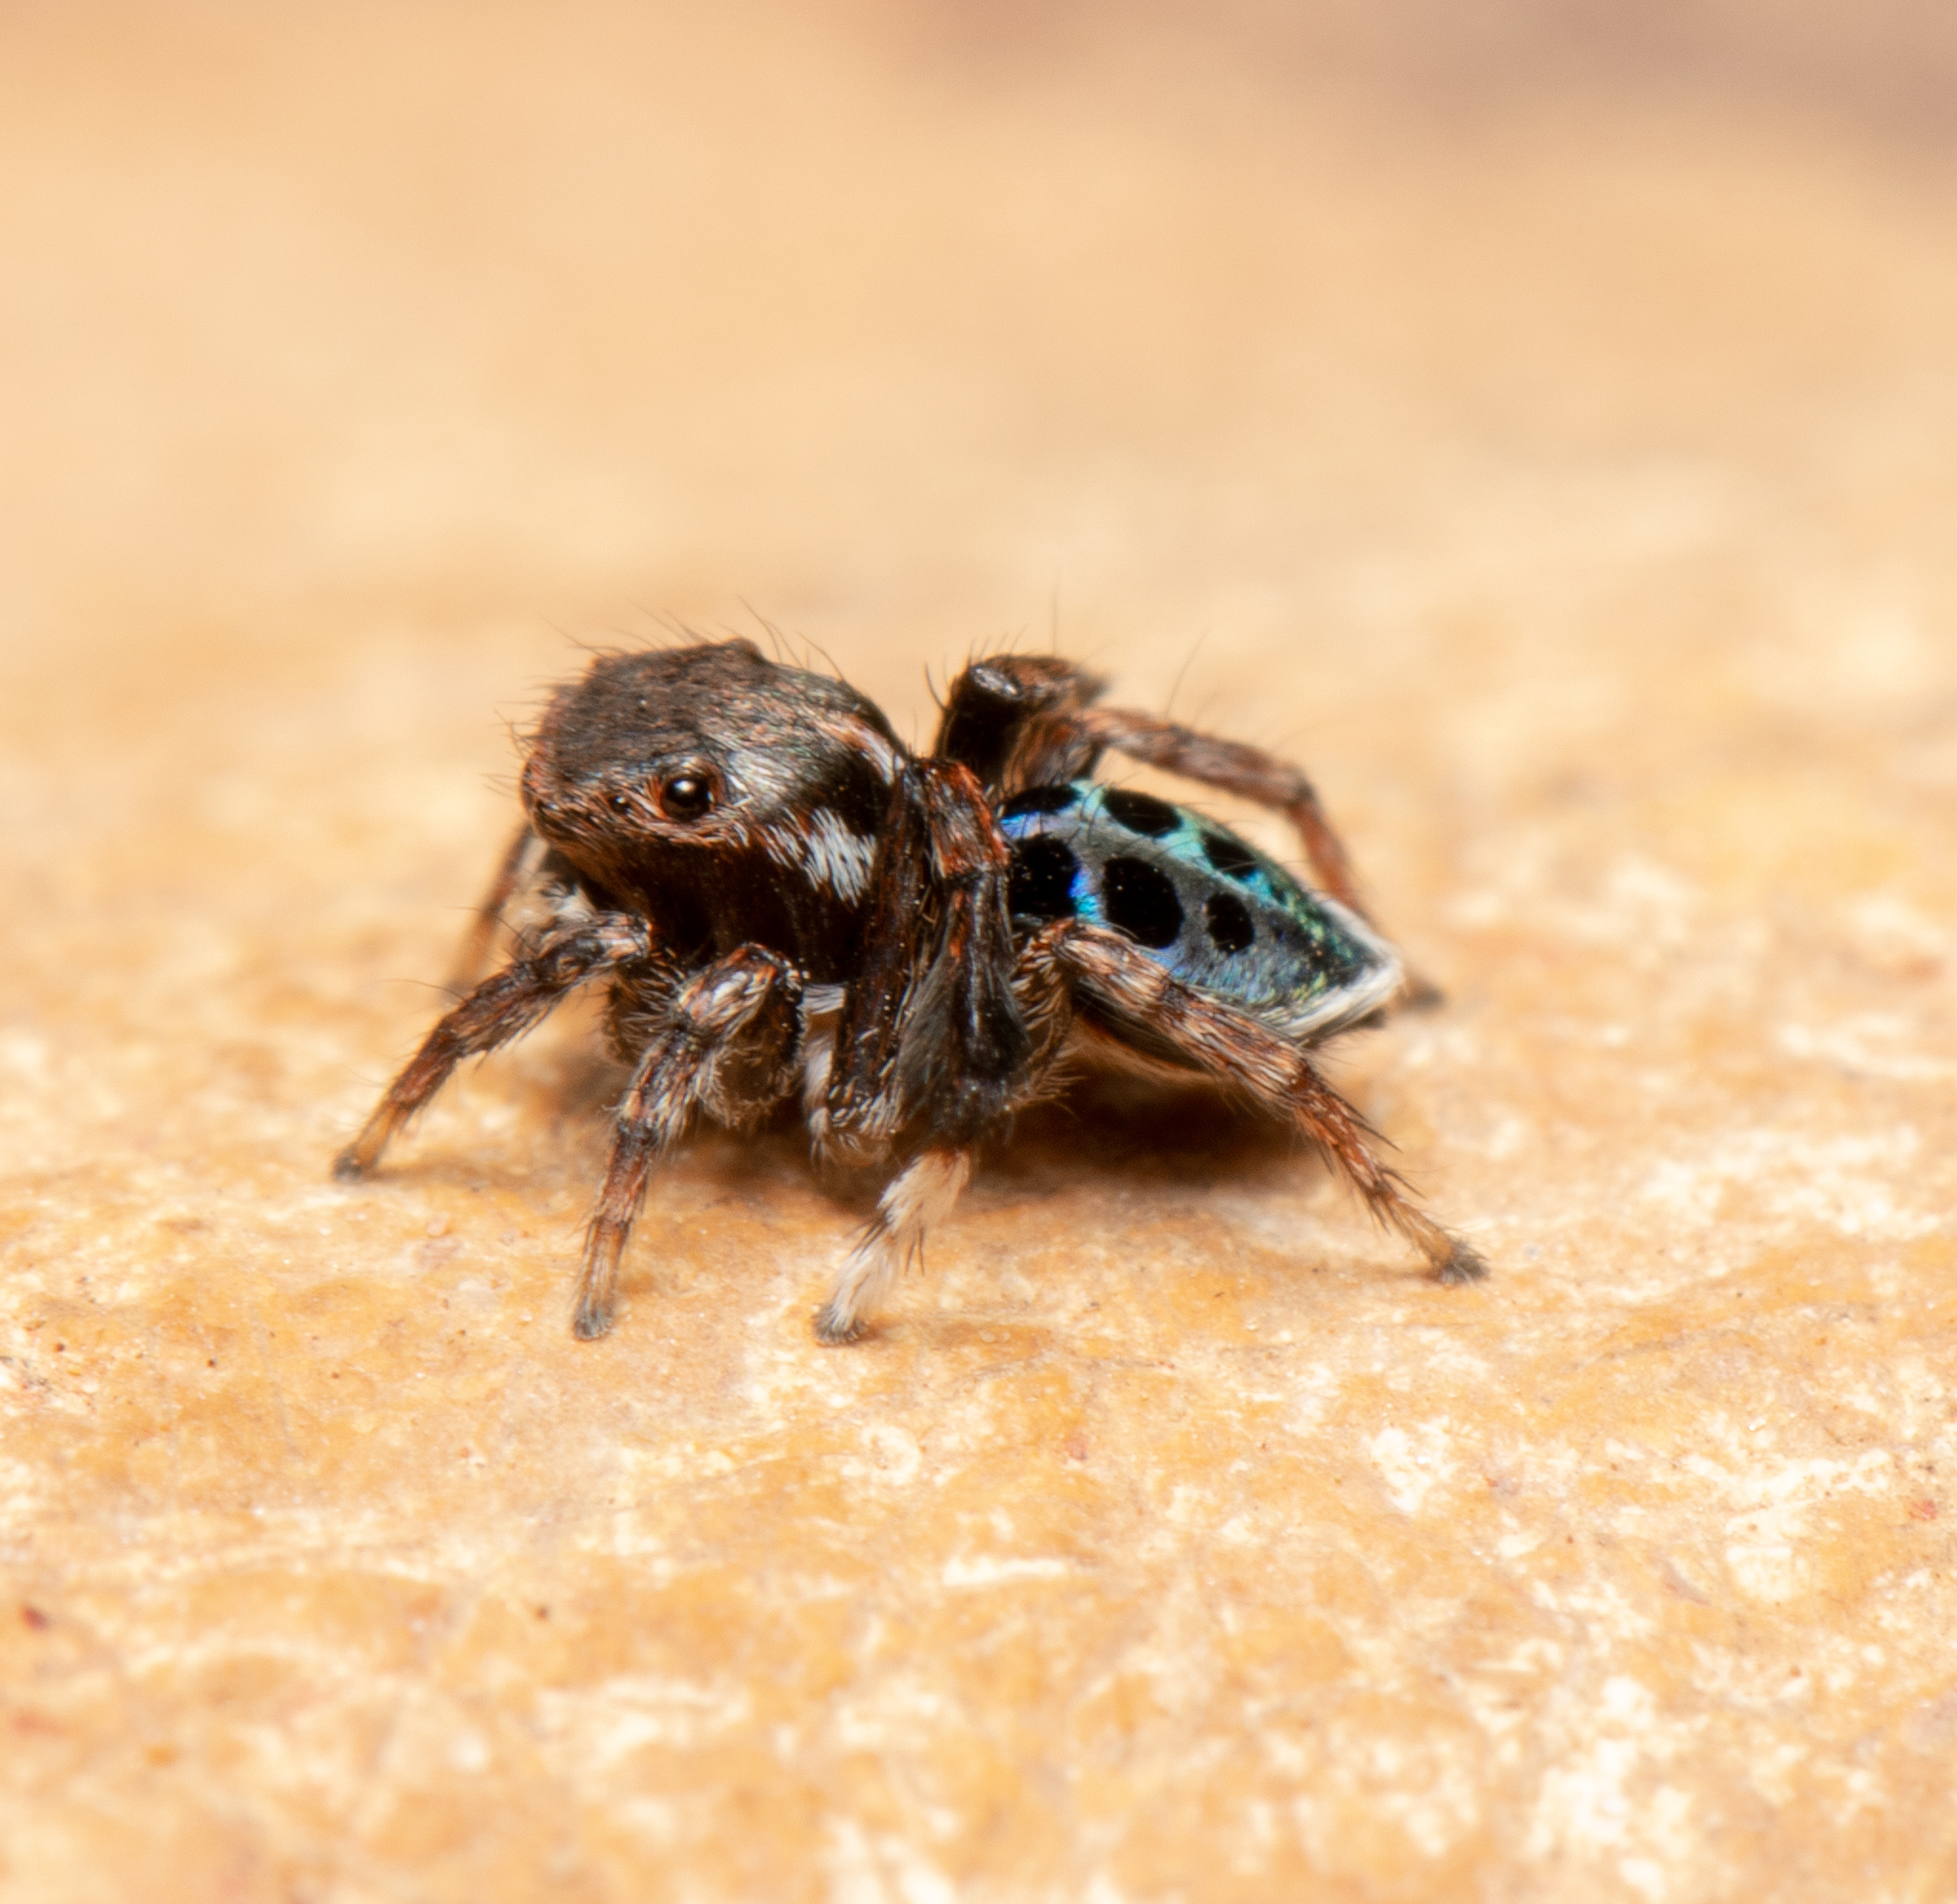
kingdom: Animalia
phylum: Arthropoda
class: Arachnida
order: Araneae
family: Salticidae
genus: Maratus
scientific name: Maratus nigromaculatus
